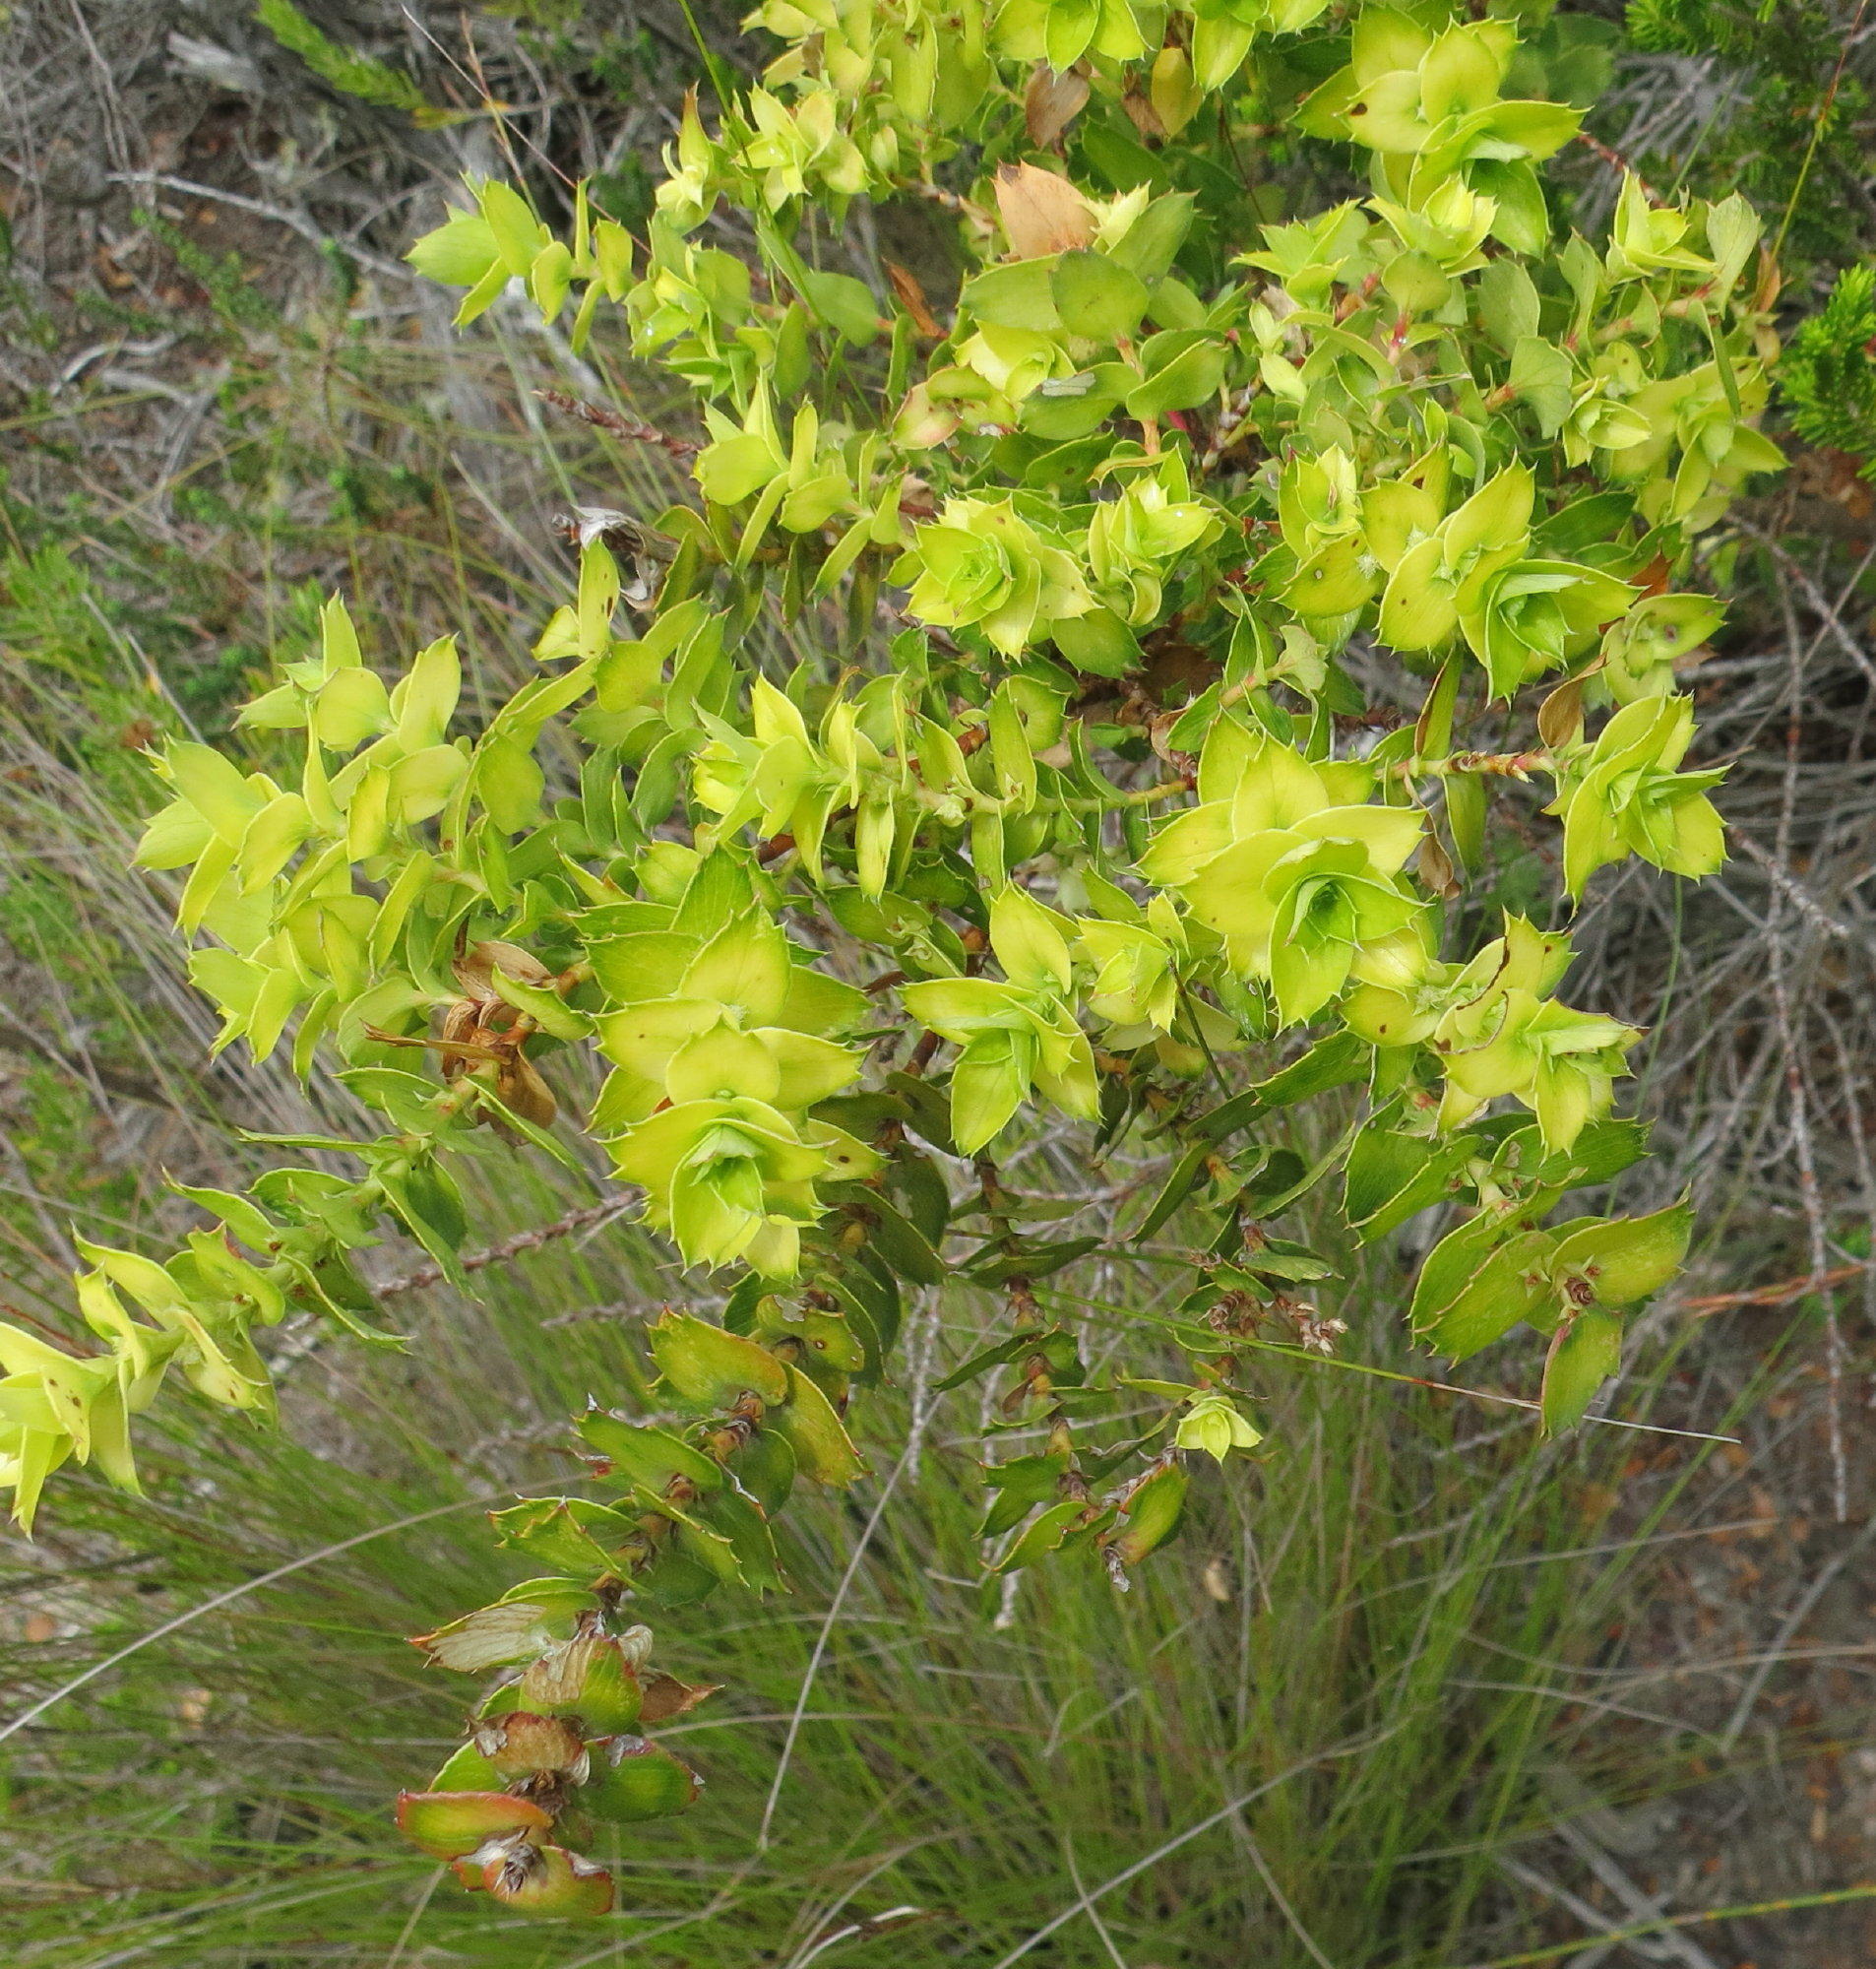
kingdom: Plantae
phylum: Tracheophyta
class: Magnoliopsida
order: Rosales
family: Rosaceae
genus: Cliffortia
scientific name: Cliffortia ilicifolia
